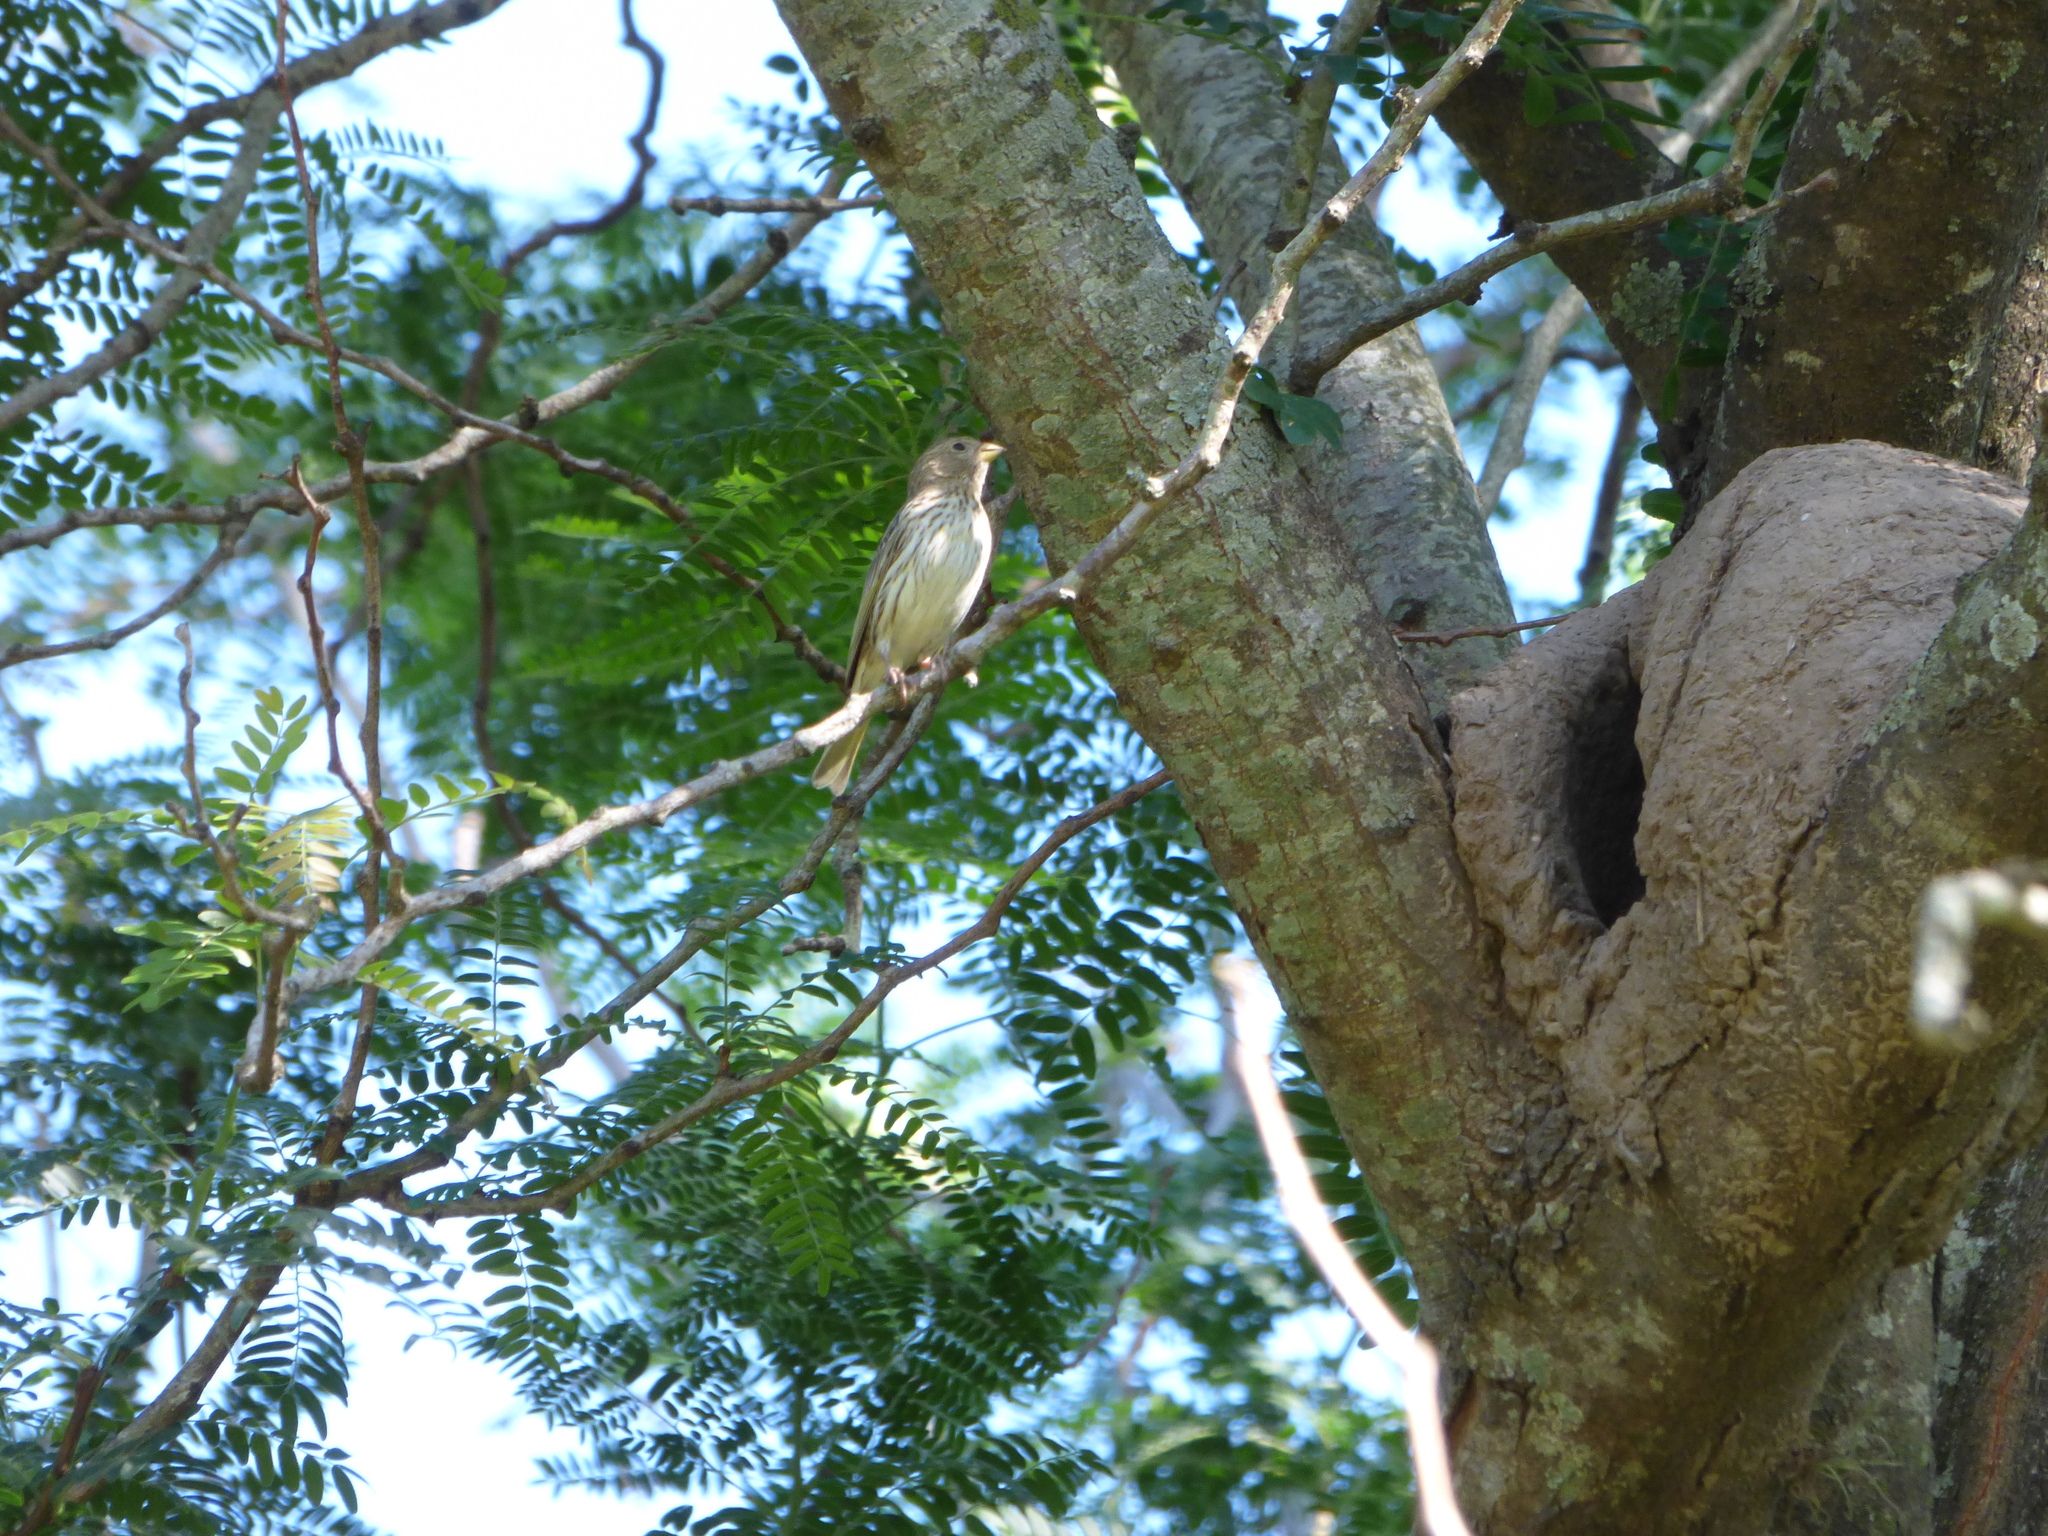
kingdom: Animalia
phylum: Chordata
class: Aves
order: Passeriformes
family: Thraupidae
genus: Sicalis
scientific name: Sicalis flaveola
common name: Saffron finch
